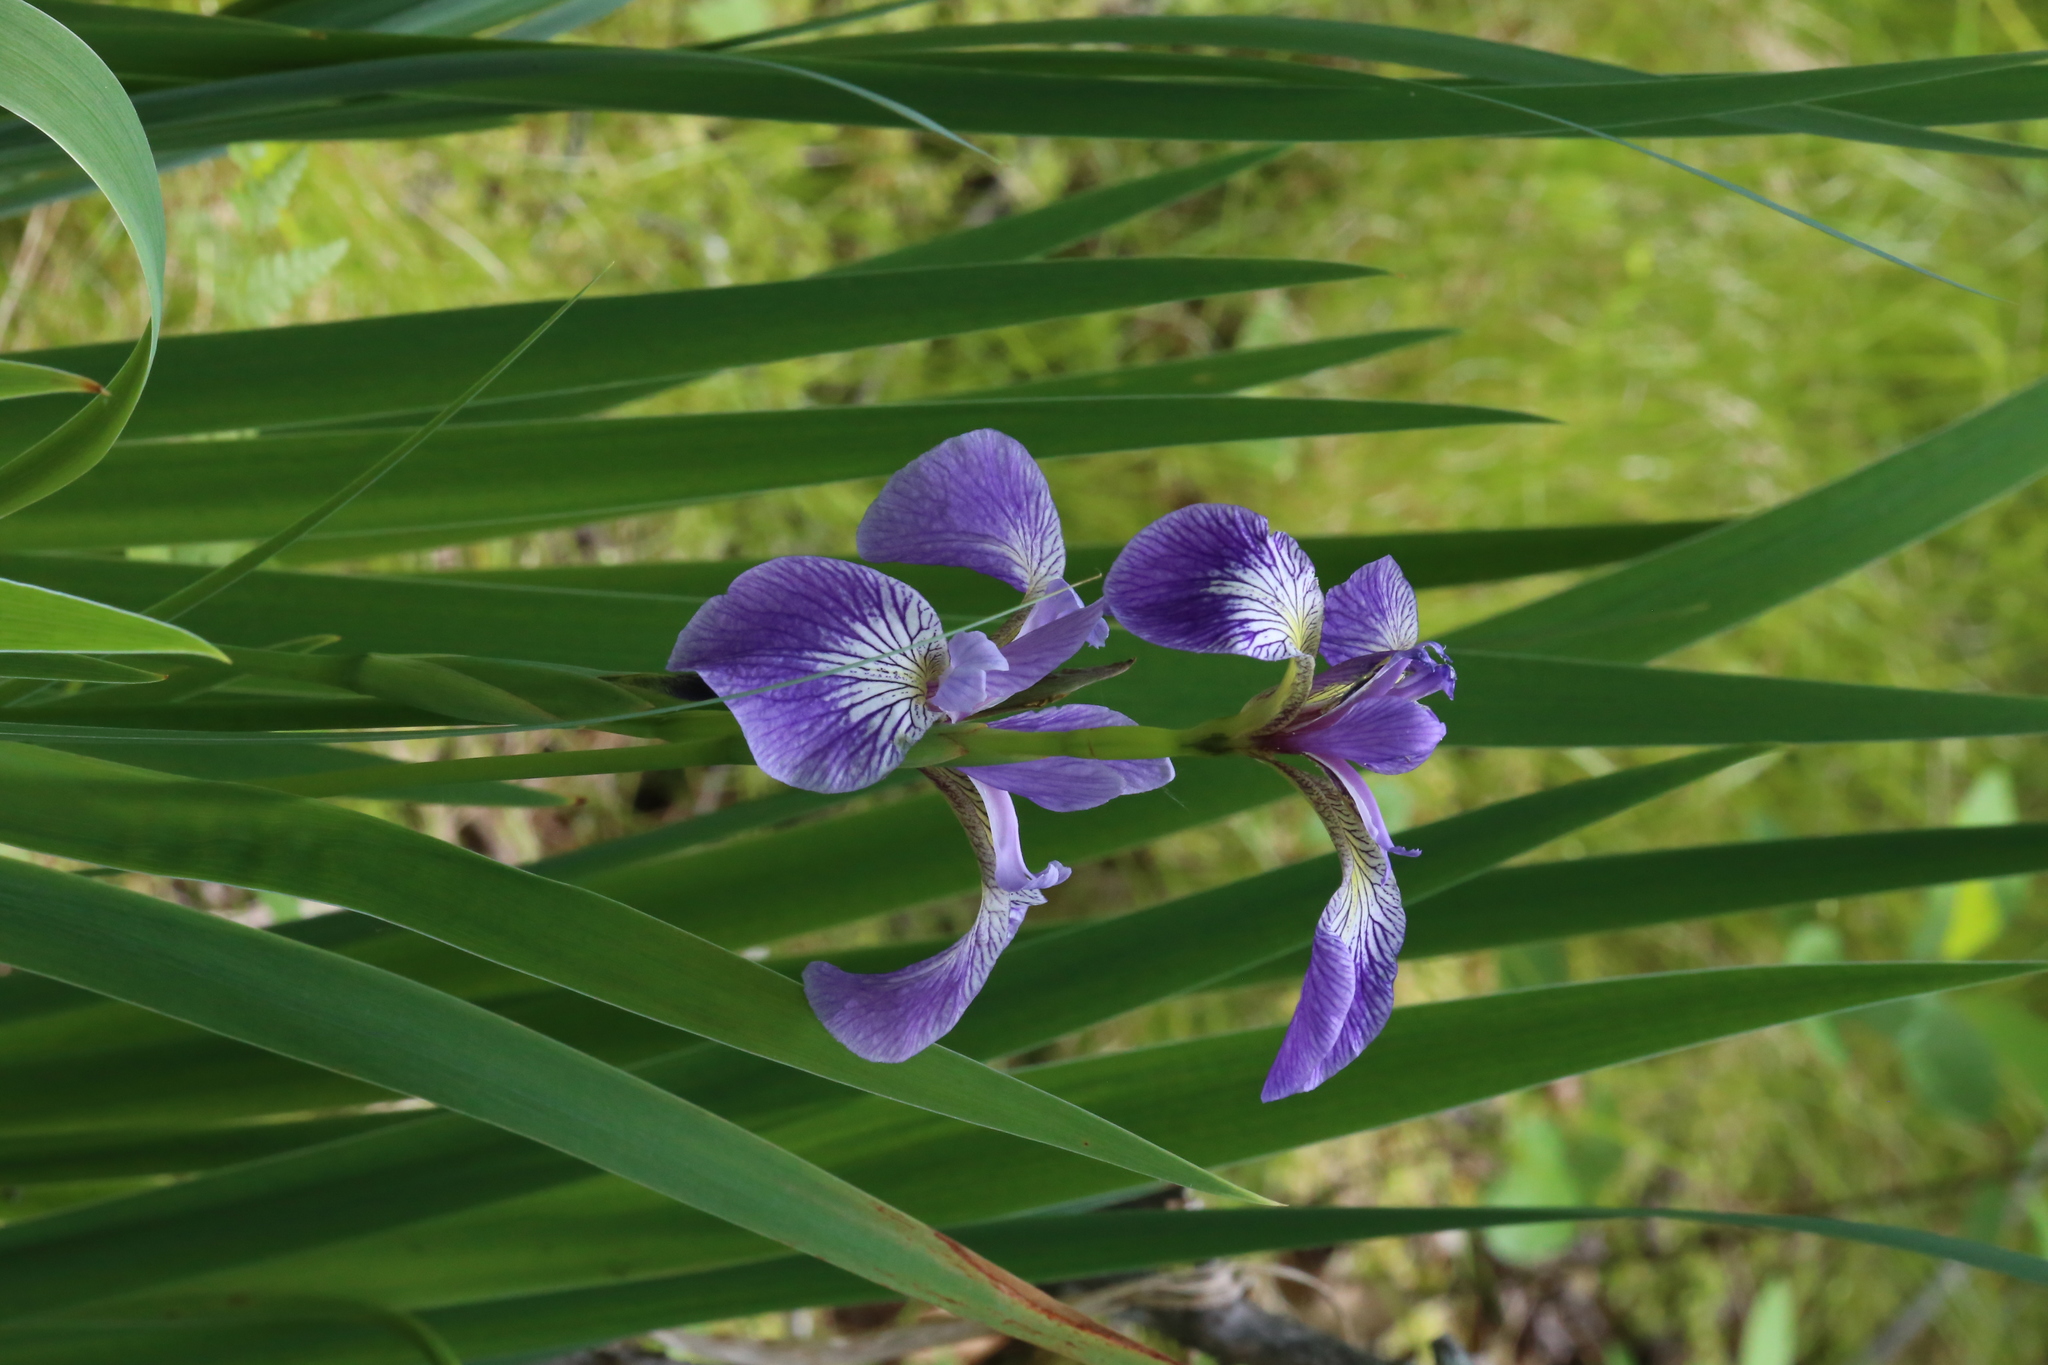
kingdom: Plantae
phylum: Tracheophyta
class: Liliopsida
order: Asparagales
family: Iridaceae
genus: Iris
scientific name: Iris versicolor
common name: Purple iris
